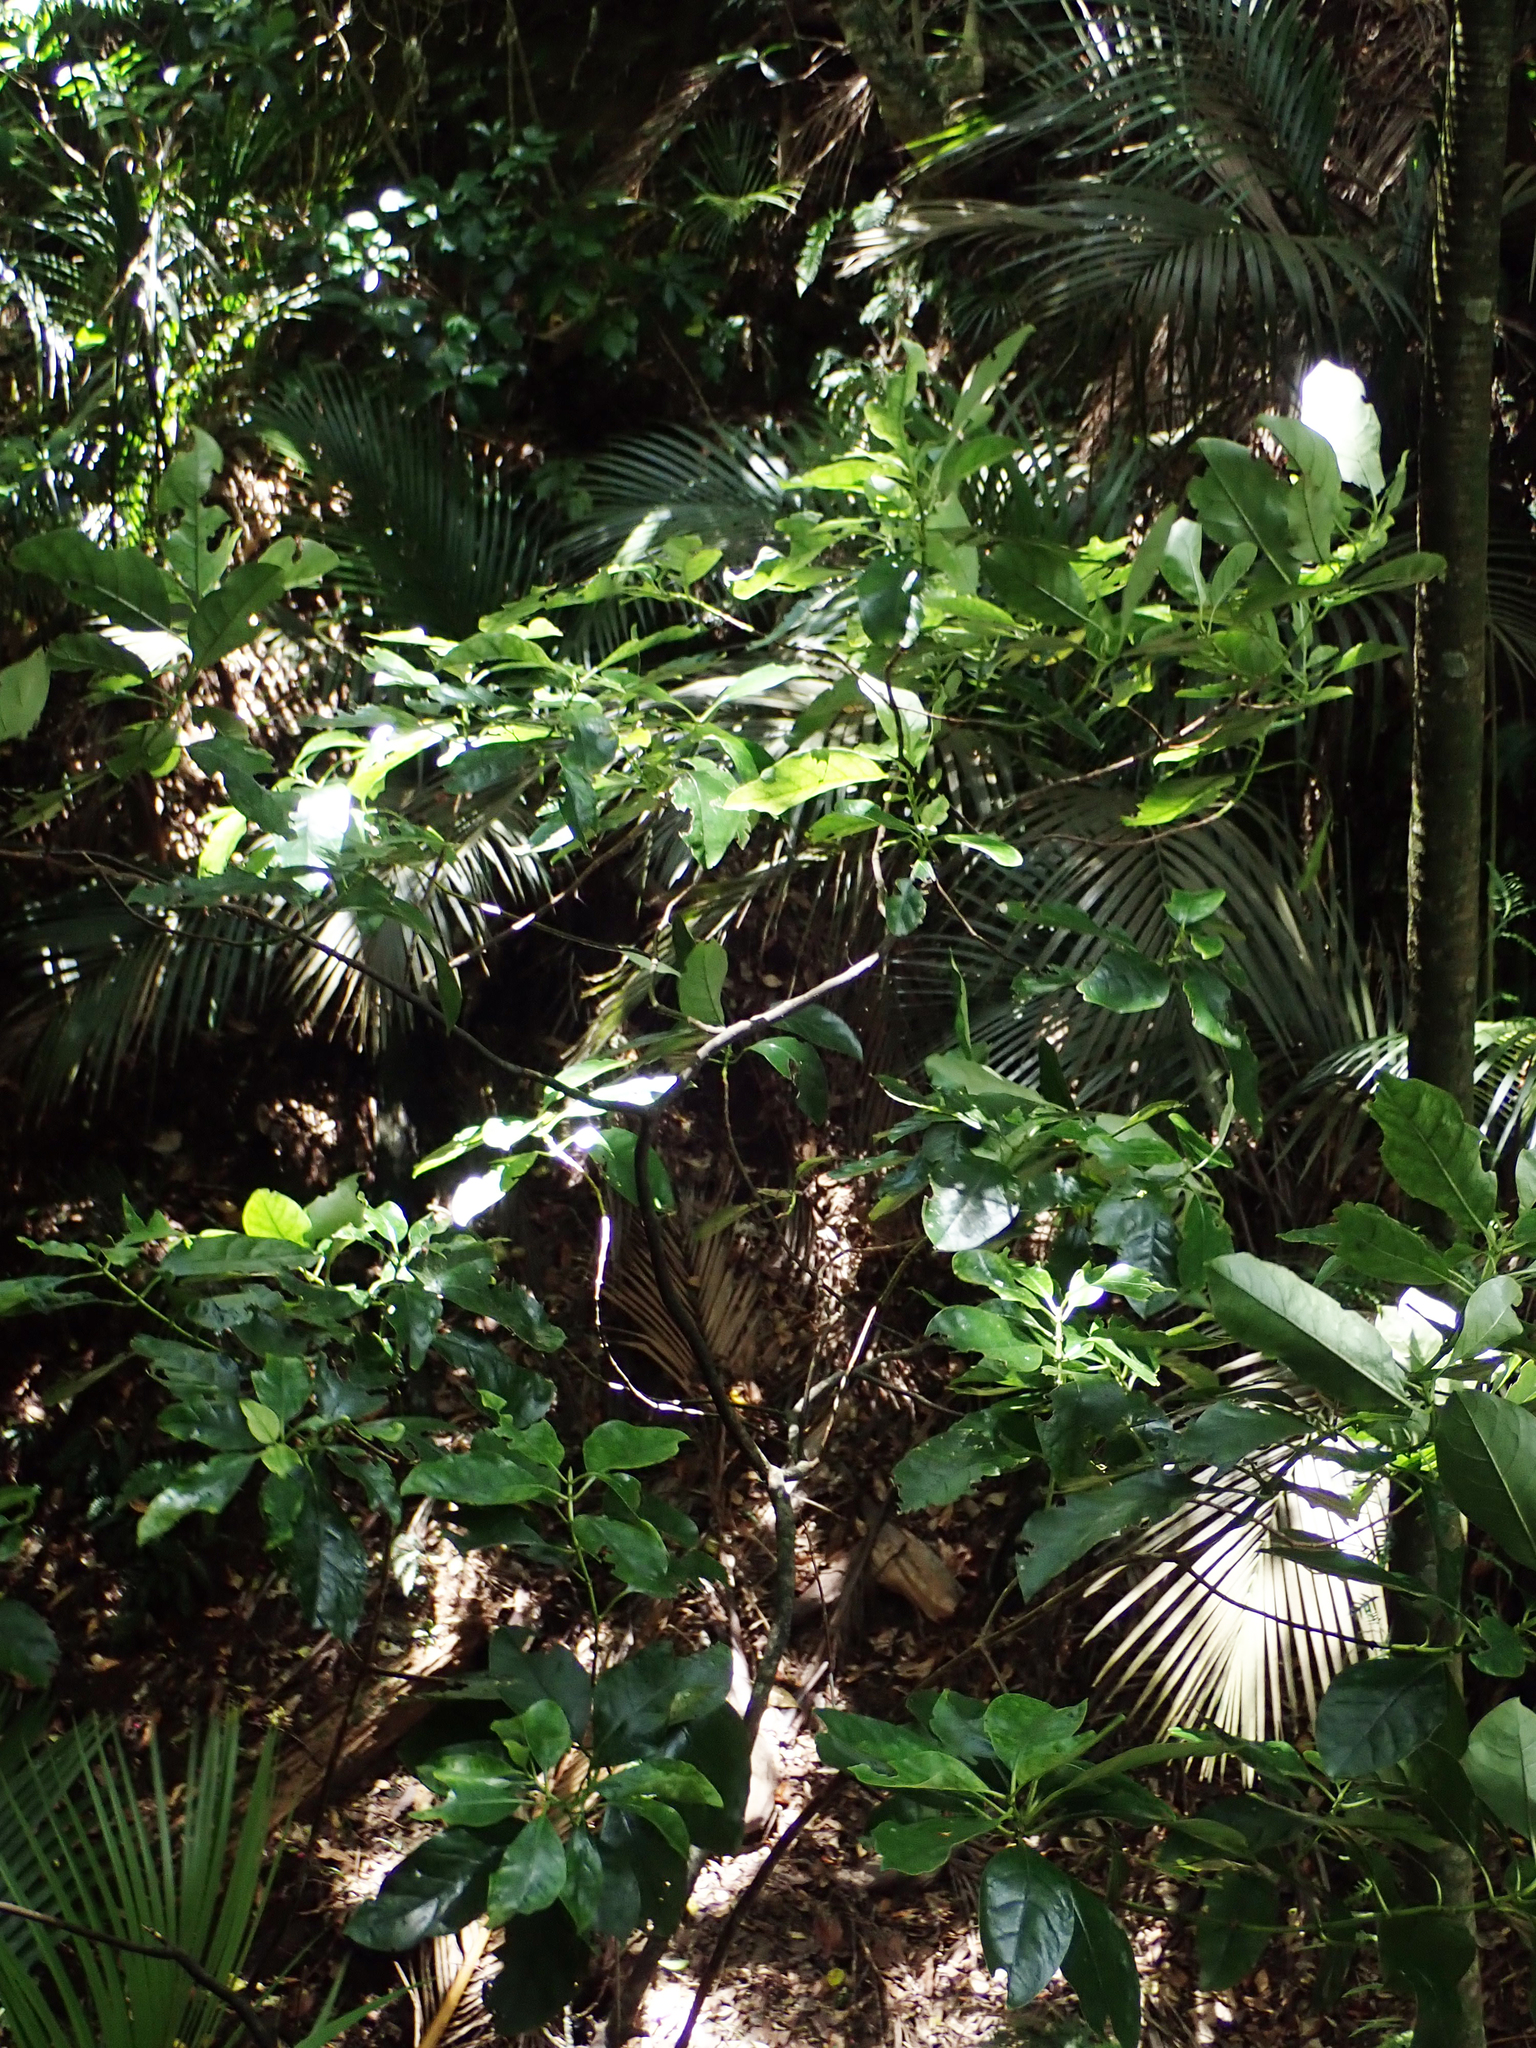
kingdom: Plantae
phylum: Tracheophyta
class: Magnoliopsida
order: Gentianales
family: Rubiaceae
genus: Coprosma
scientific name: Coprosma autumnalis
